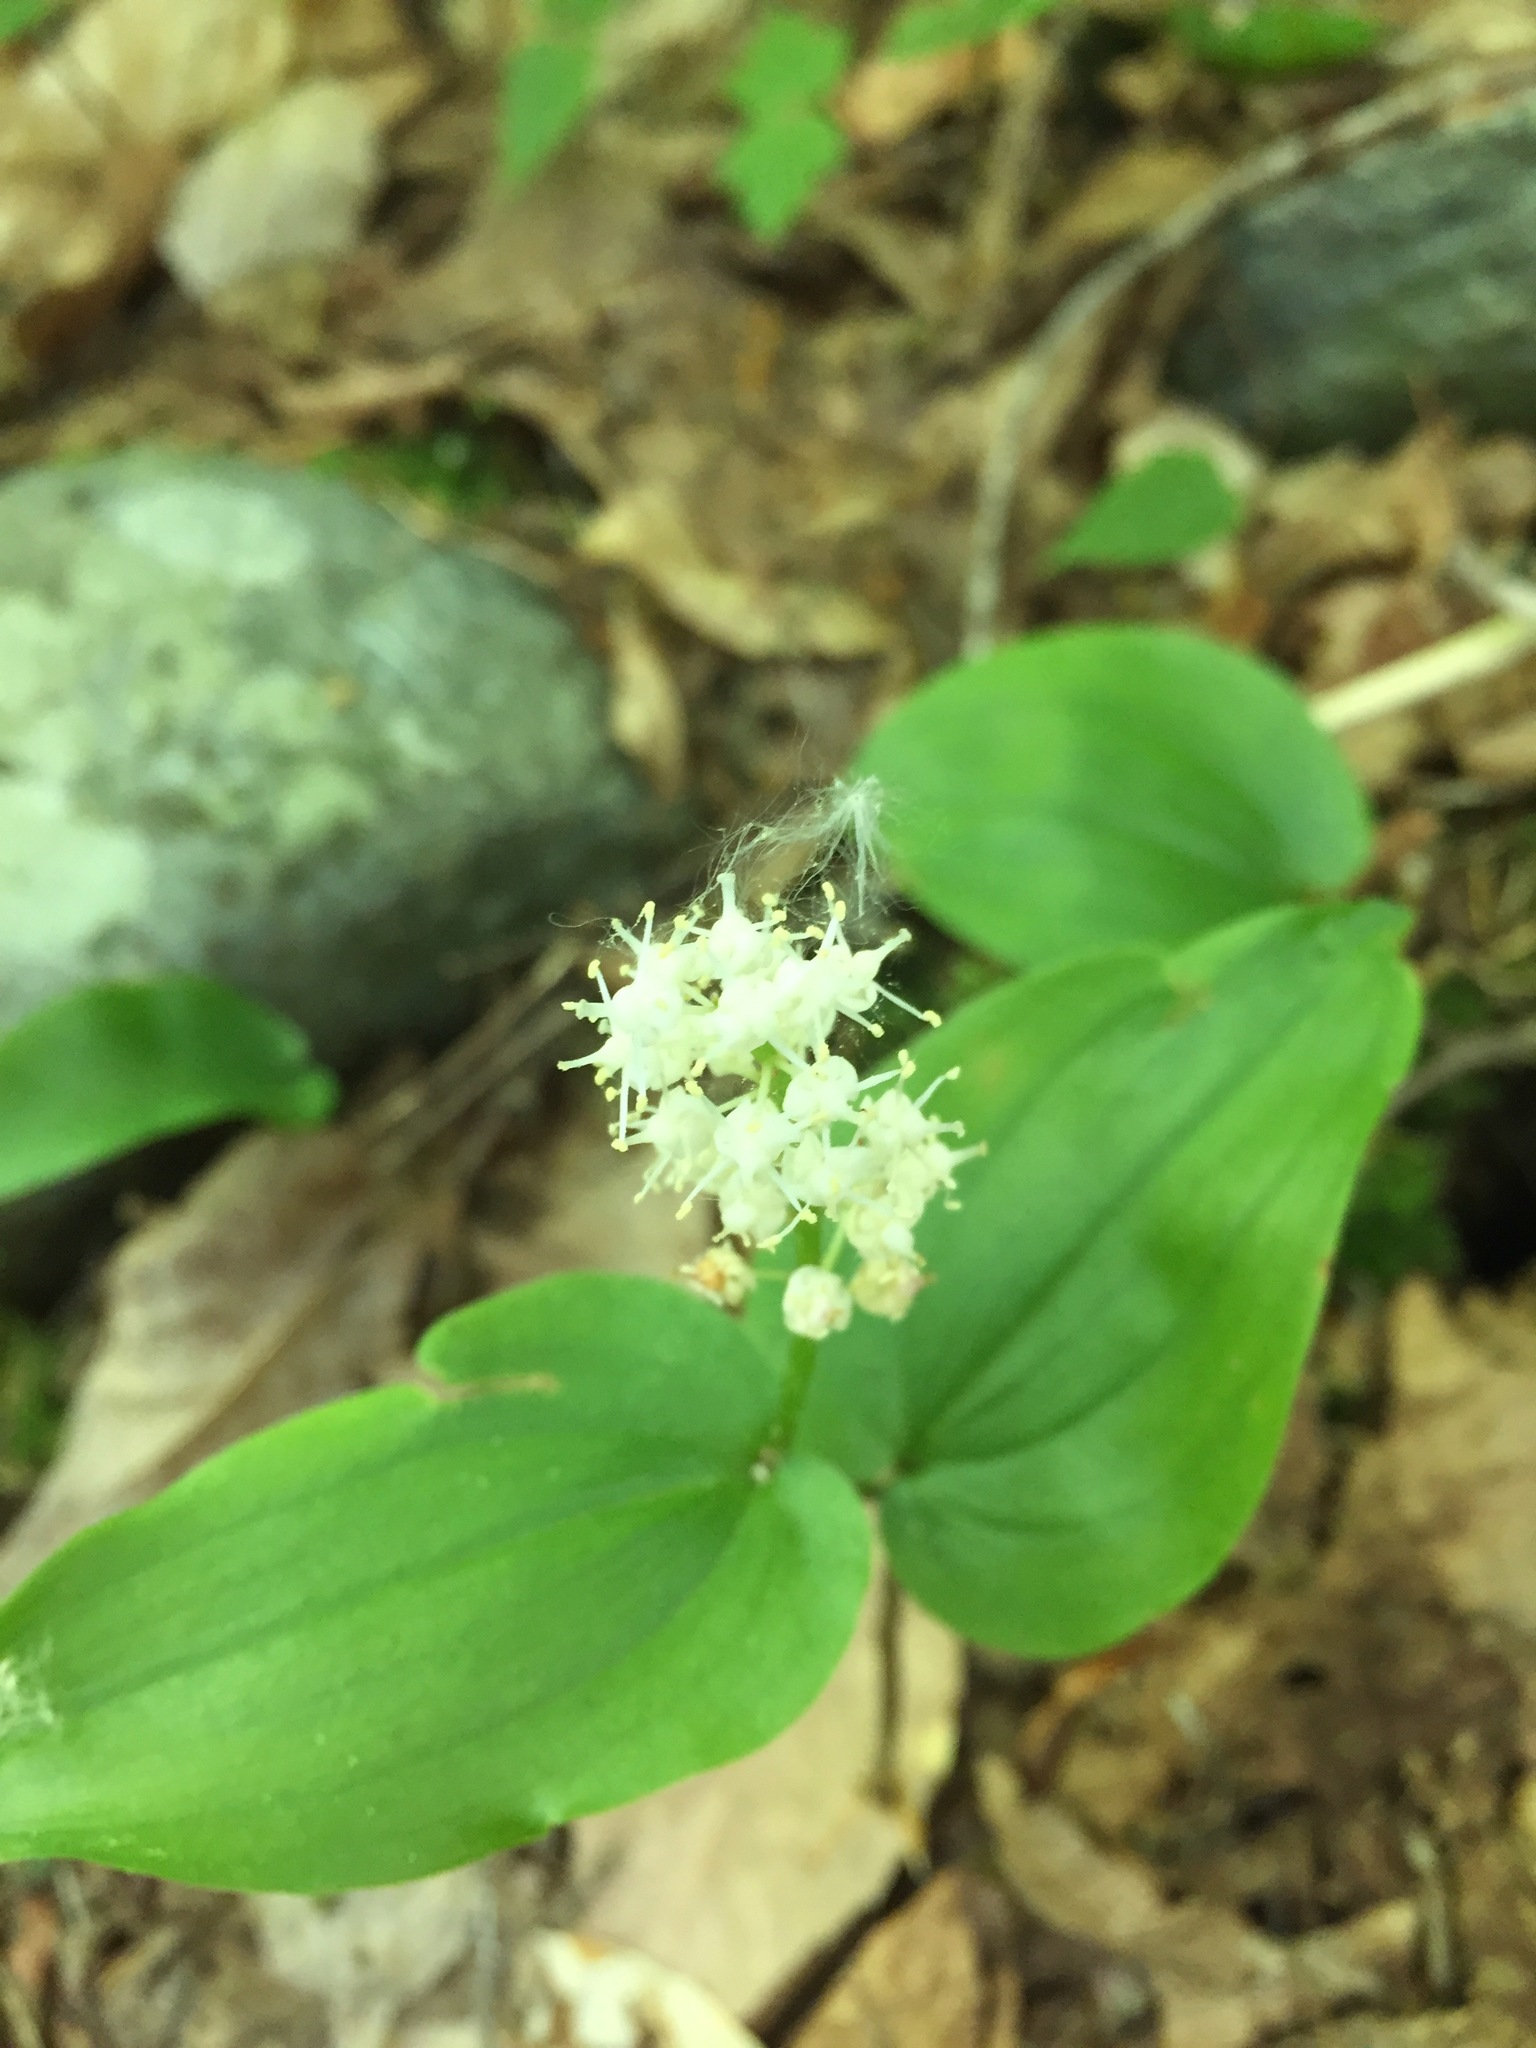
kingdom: Plantae
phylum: Tracheophyta
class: Liliopsida
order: Asparagales
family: Asparagaceae
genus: Maianthemum
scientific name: Maianthemum canadense
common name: False lily-of-the-valley
